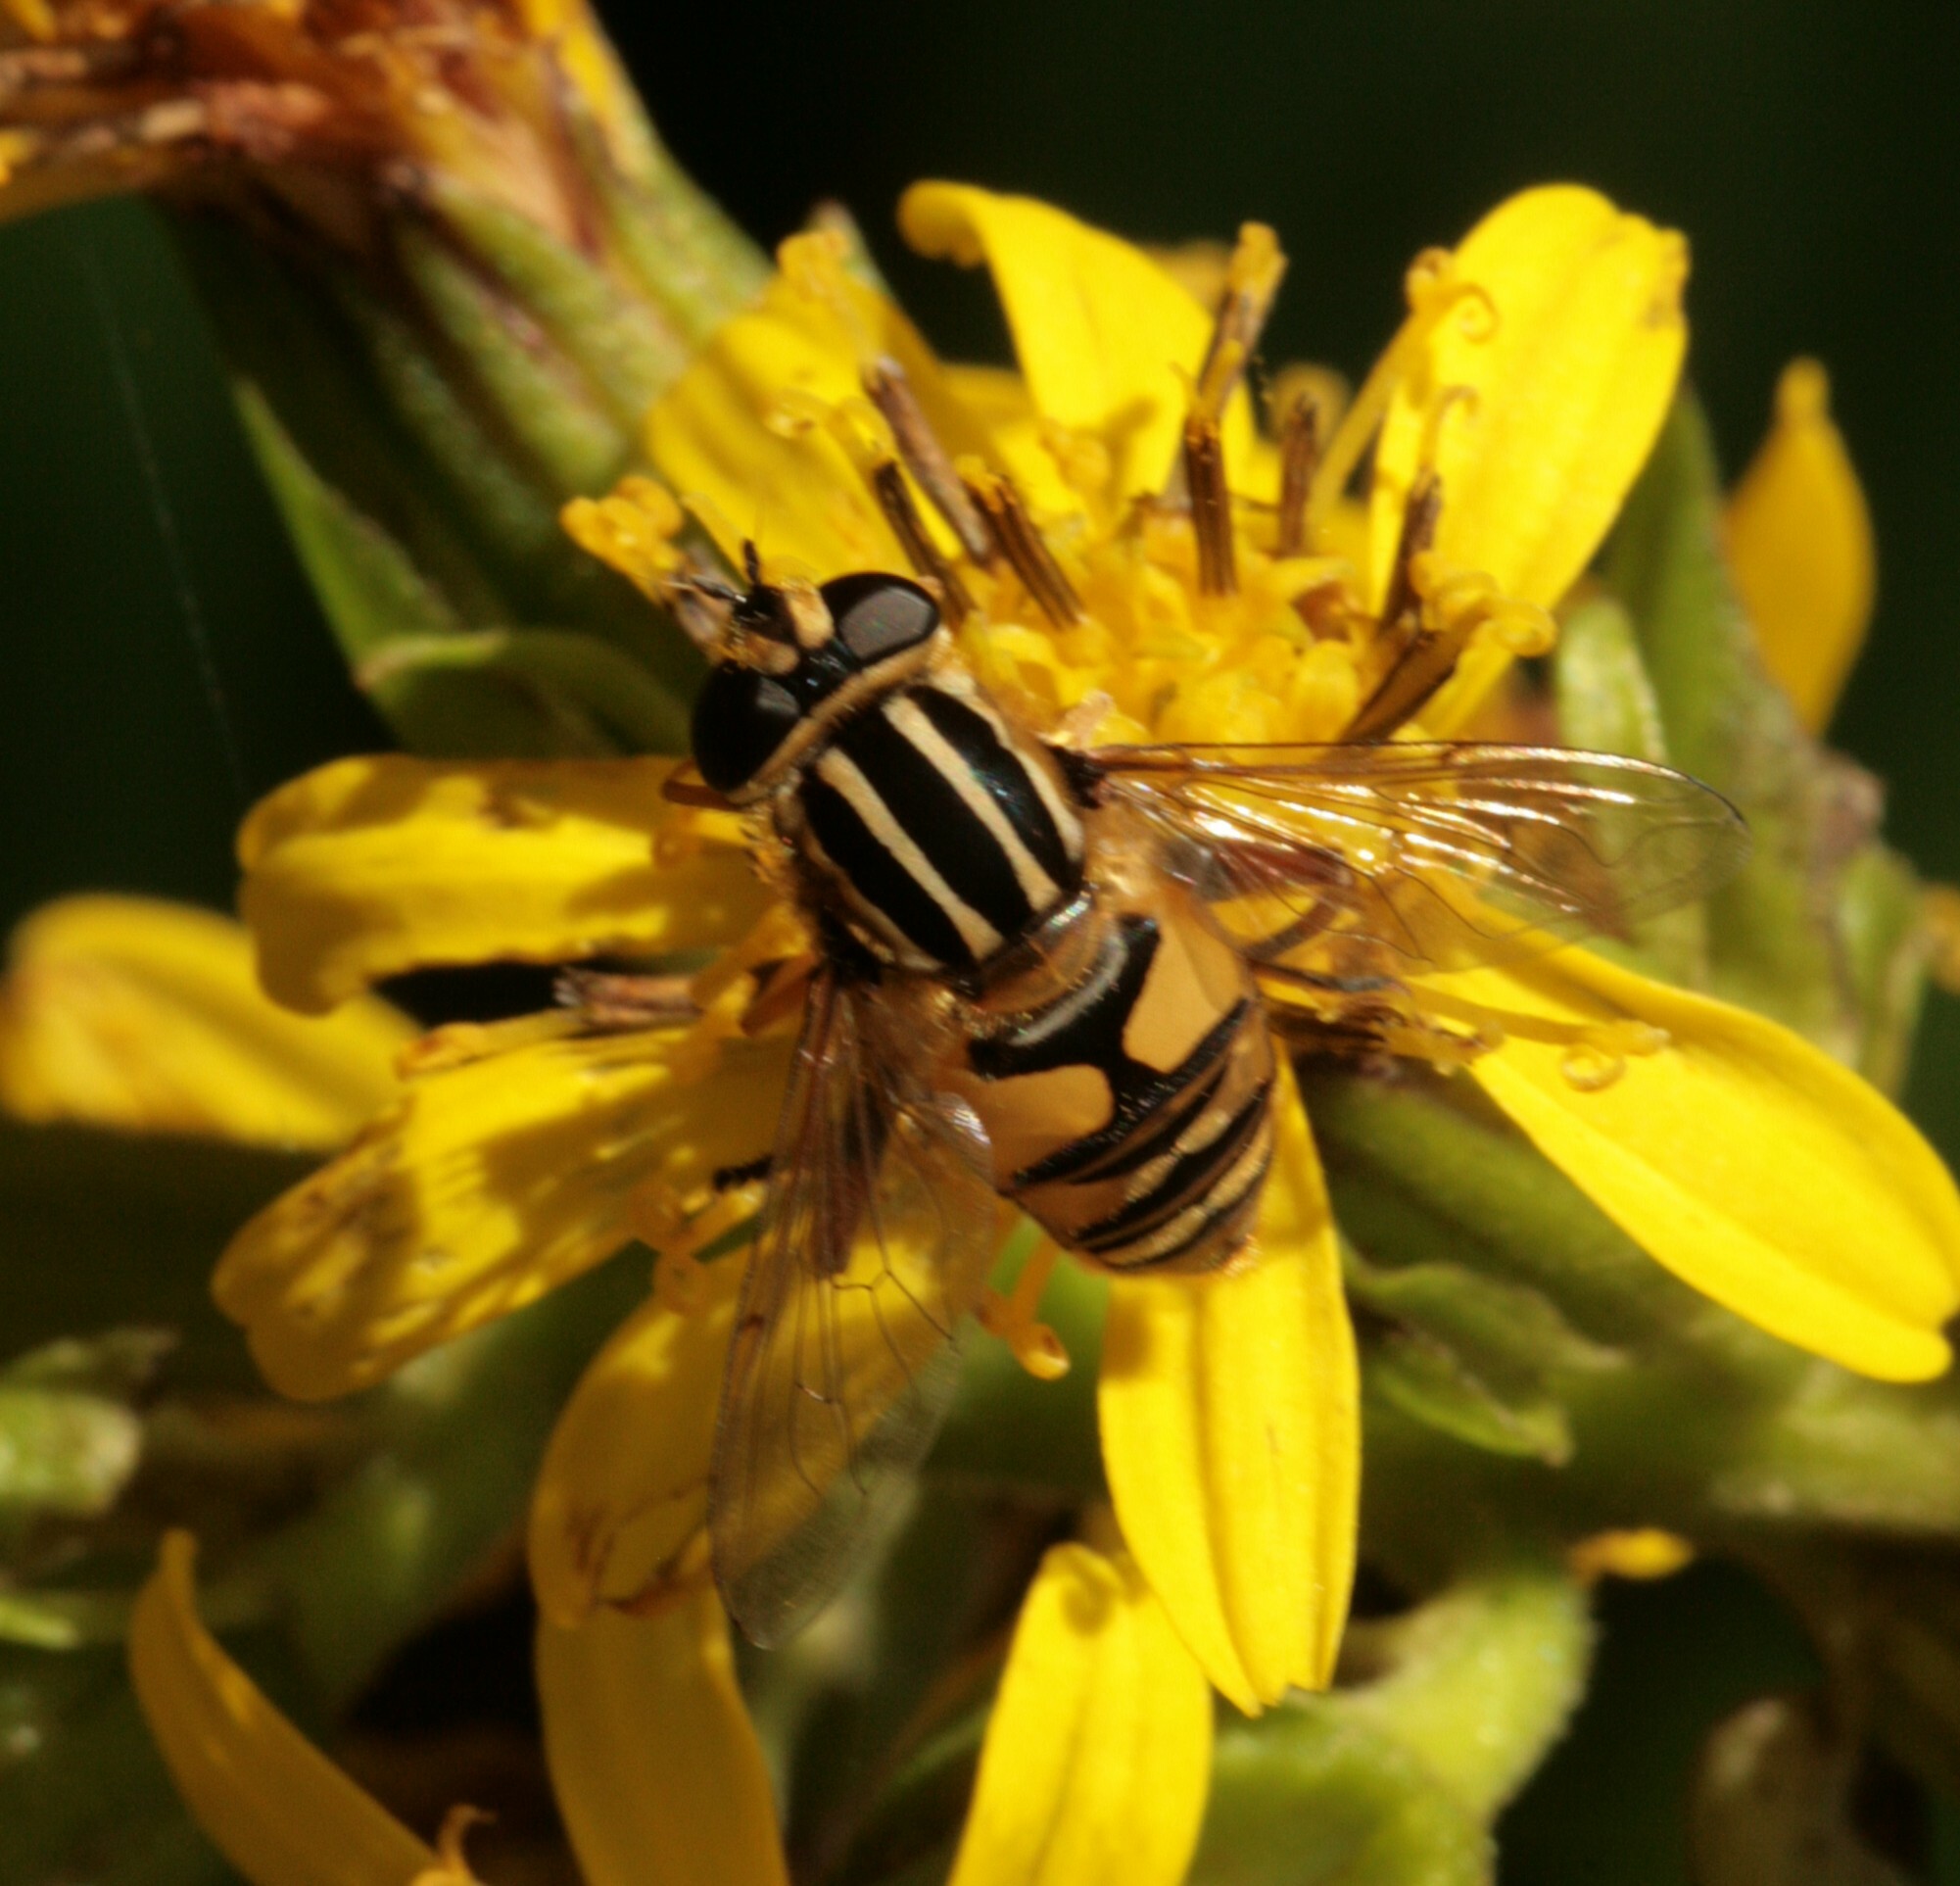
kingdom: Animalia
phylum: Arthropoda
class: Insecta
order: Diptera
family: Syrphidae
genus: Helophilus
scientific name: Helophilus pendulus
